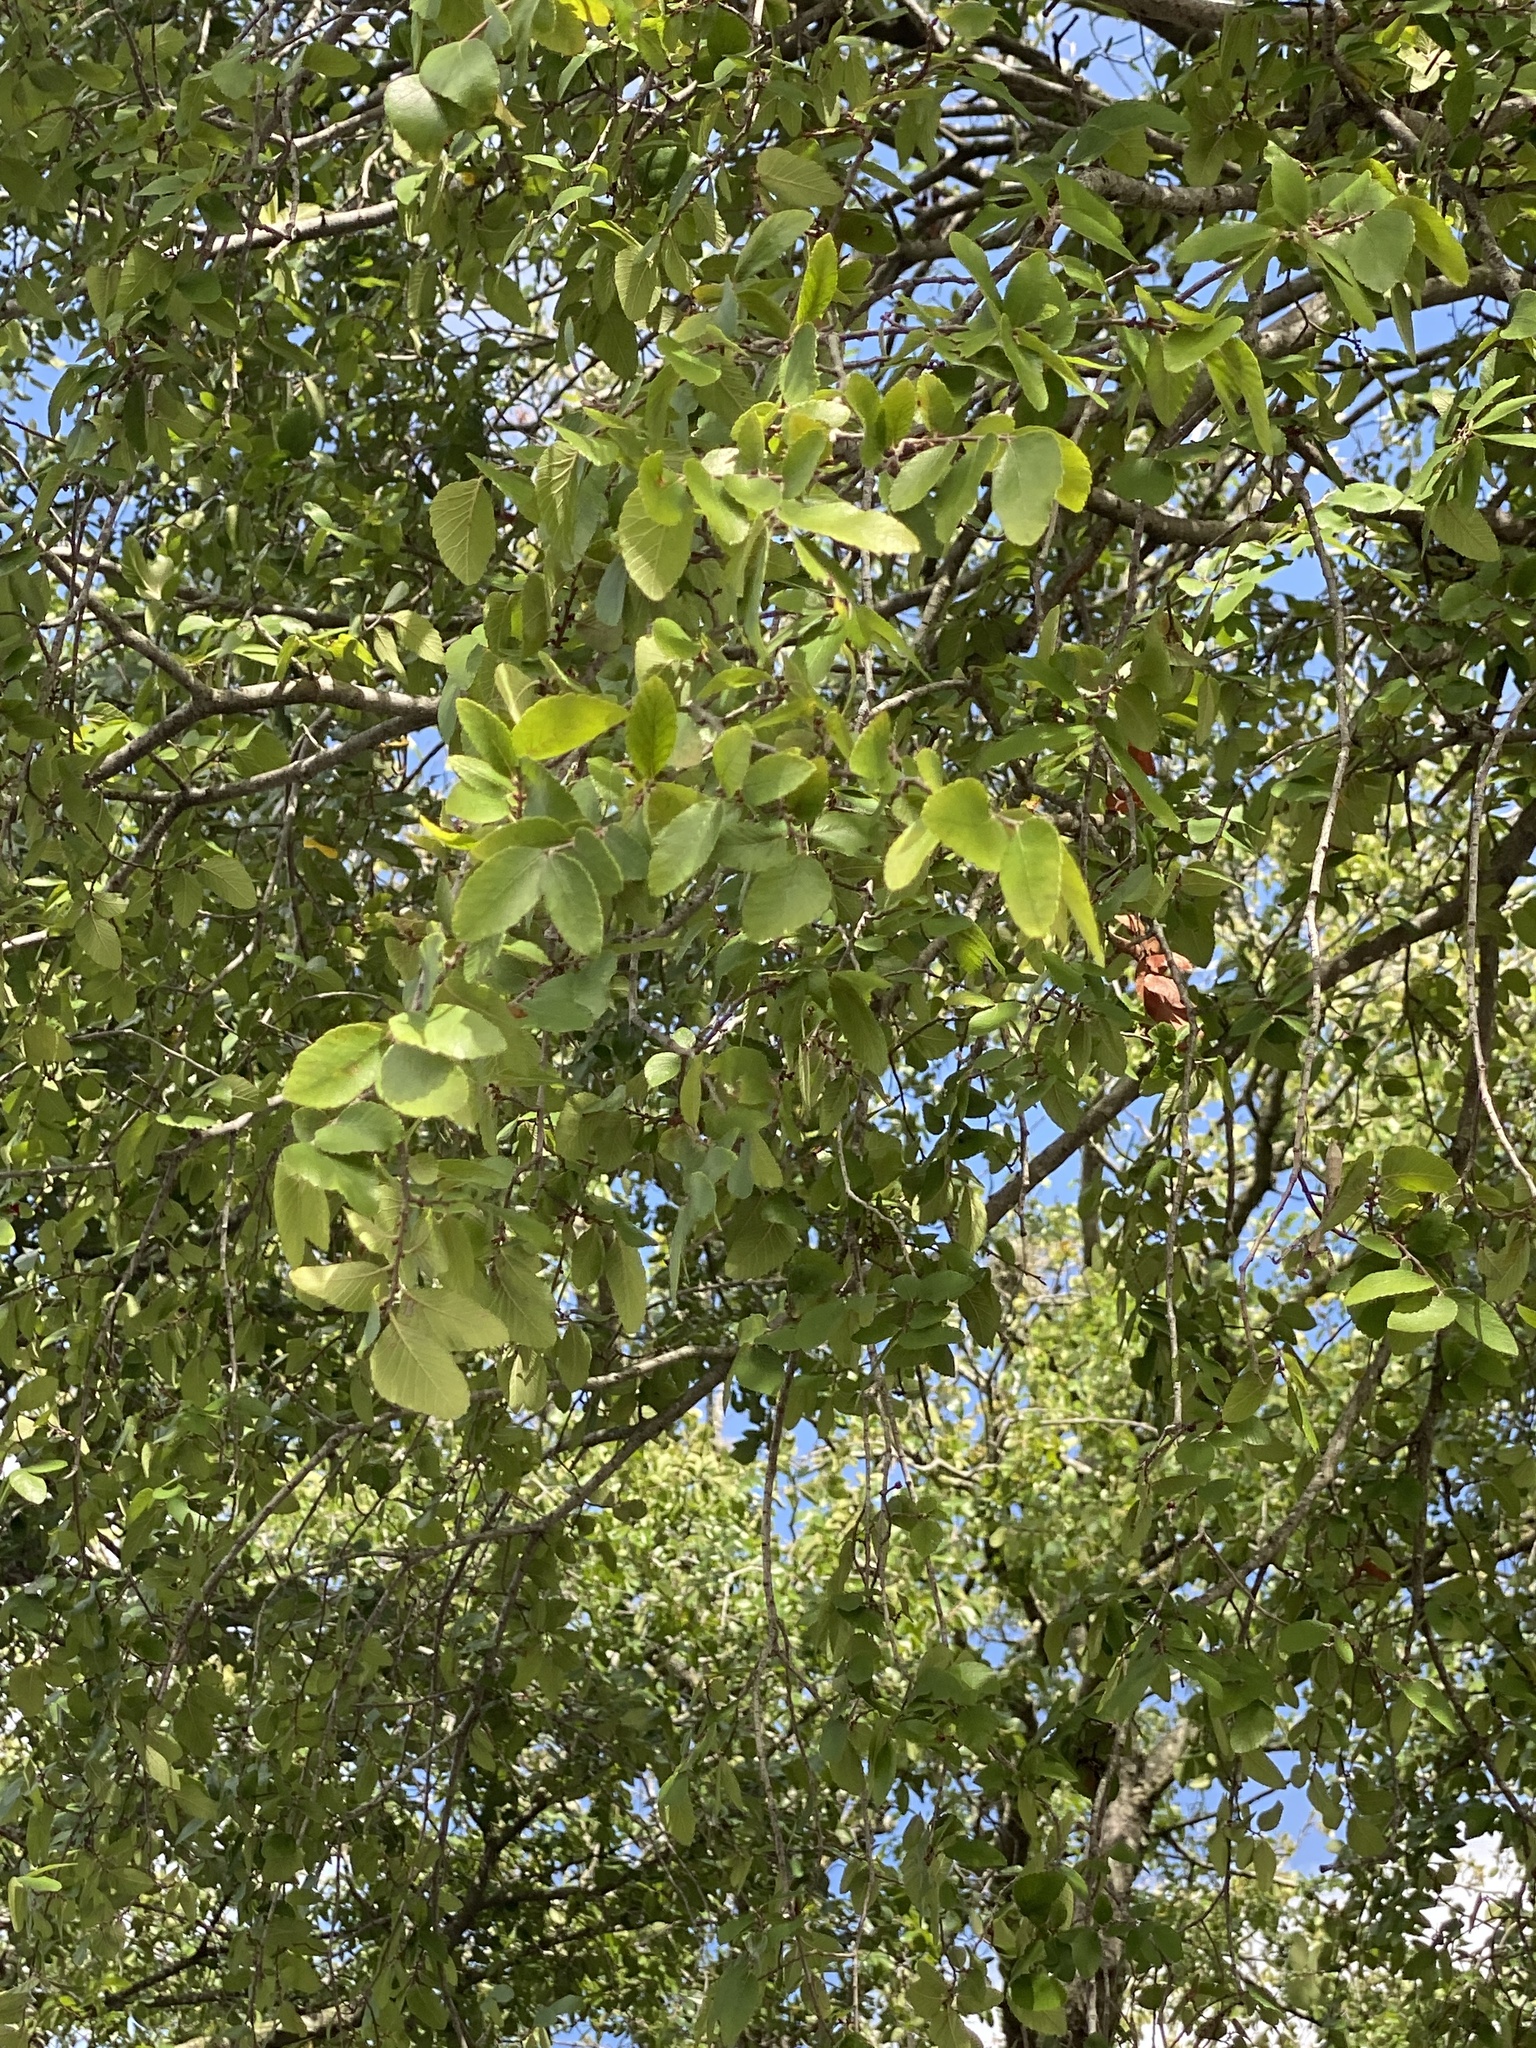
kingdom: Plantae
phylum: Tracheophyta
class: Magnoliopsida
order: Rosales
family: Ulmaceae
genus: Ulmus
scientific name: Ulmus crassifolia
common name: Basket elm
